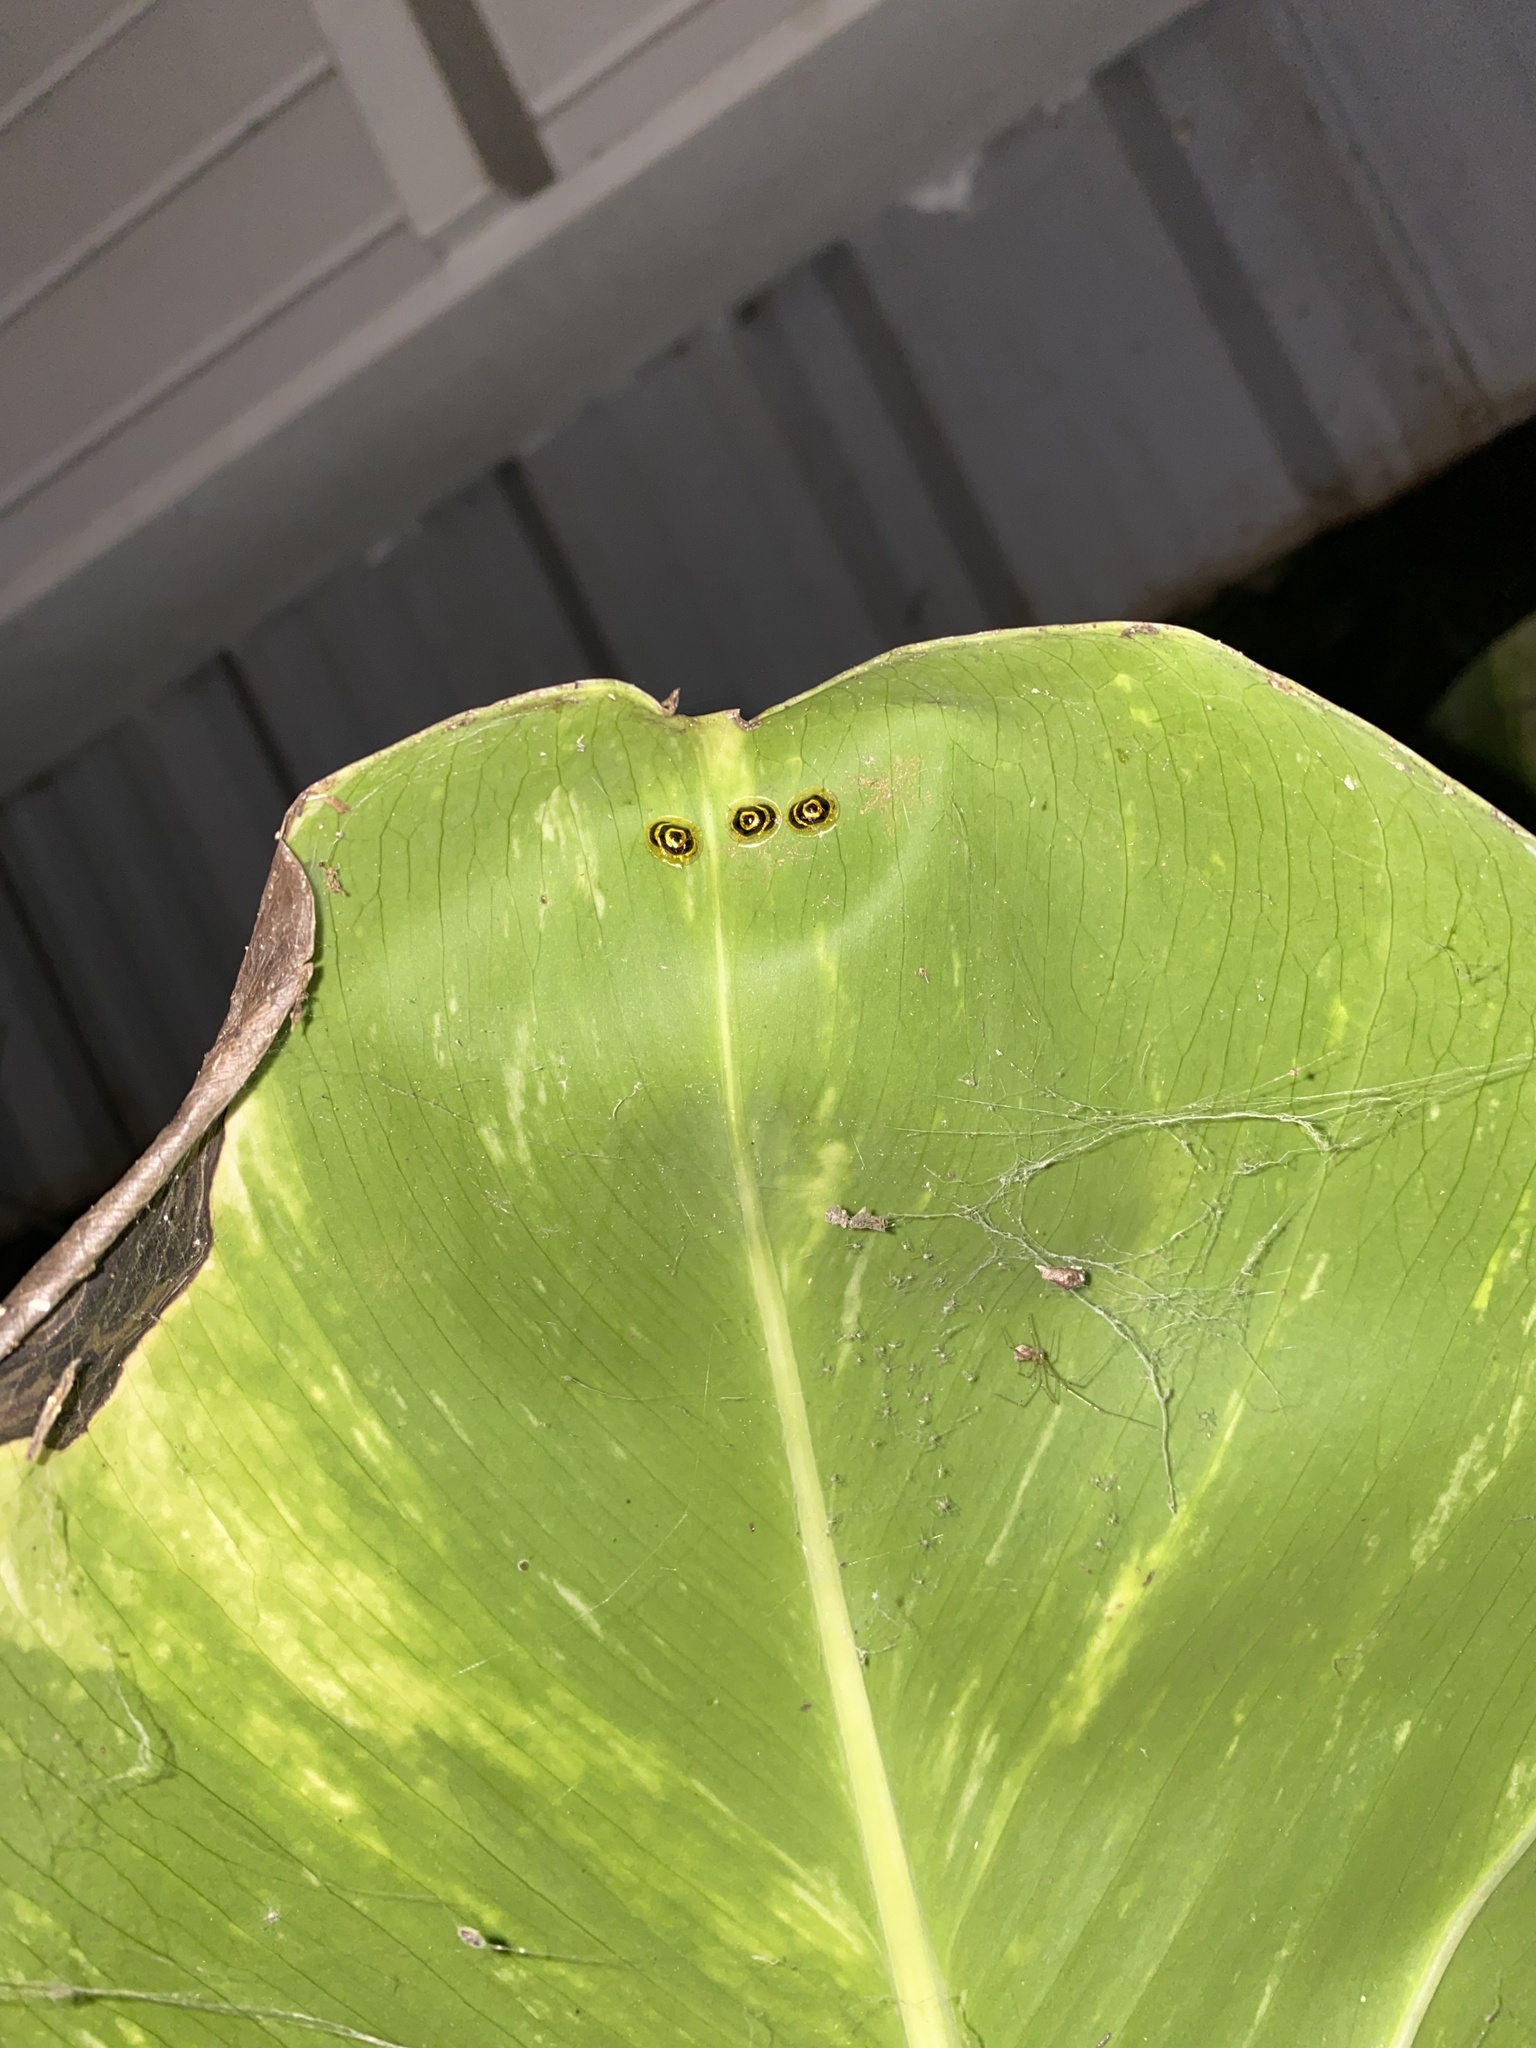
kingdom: Animalia
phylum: Arthropoda
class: Insecta
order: Coleoptera
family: Chrysomelidae
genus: Ischnocodia
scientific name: Ischnocodia annulus
